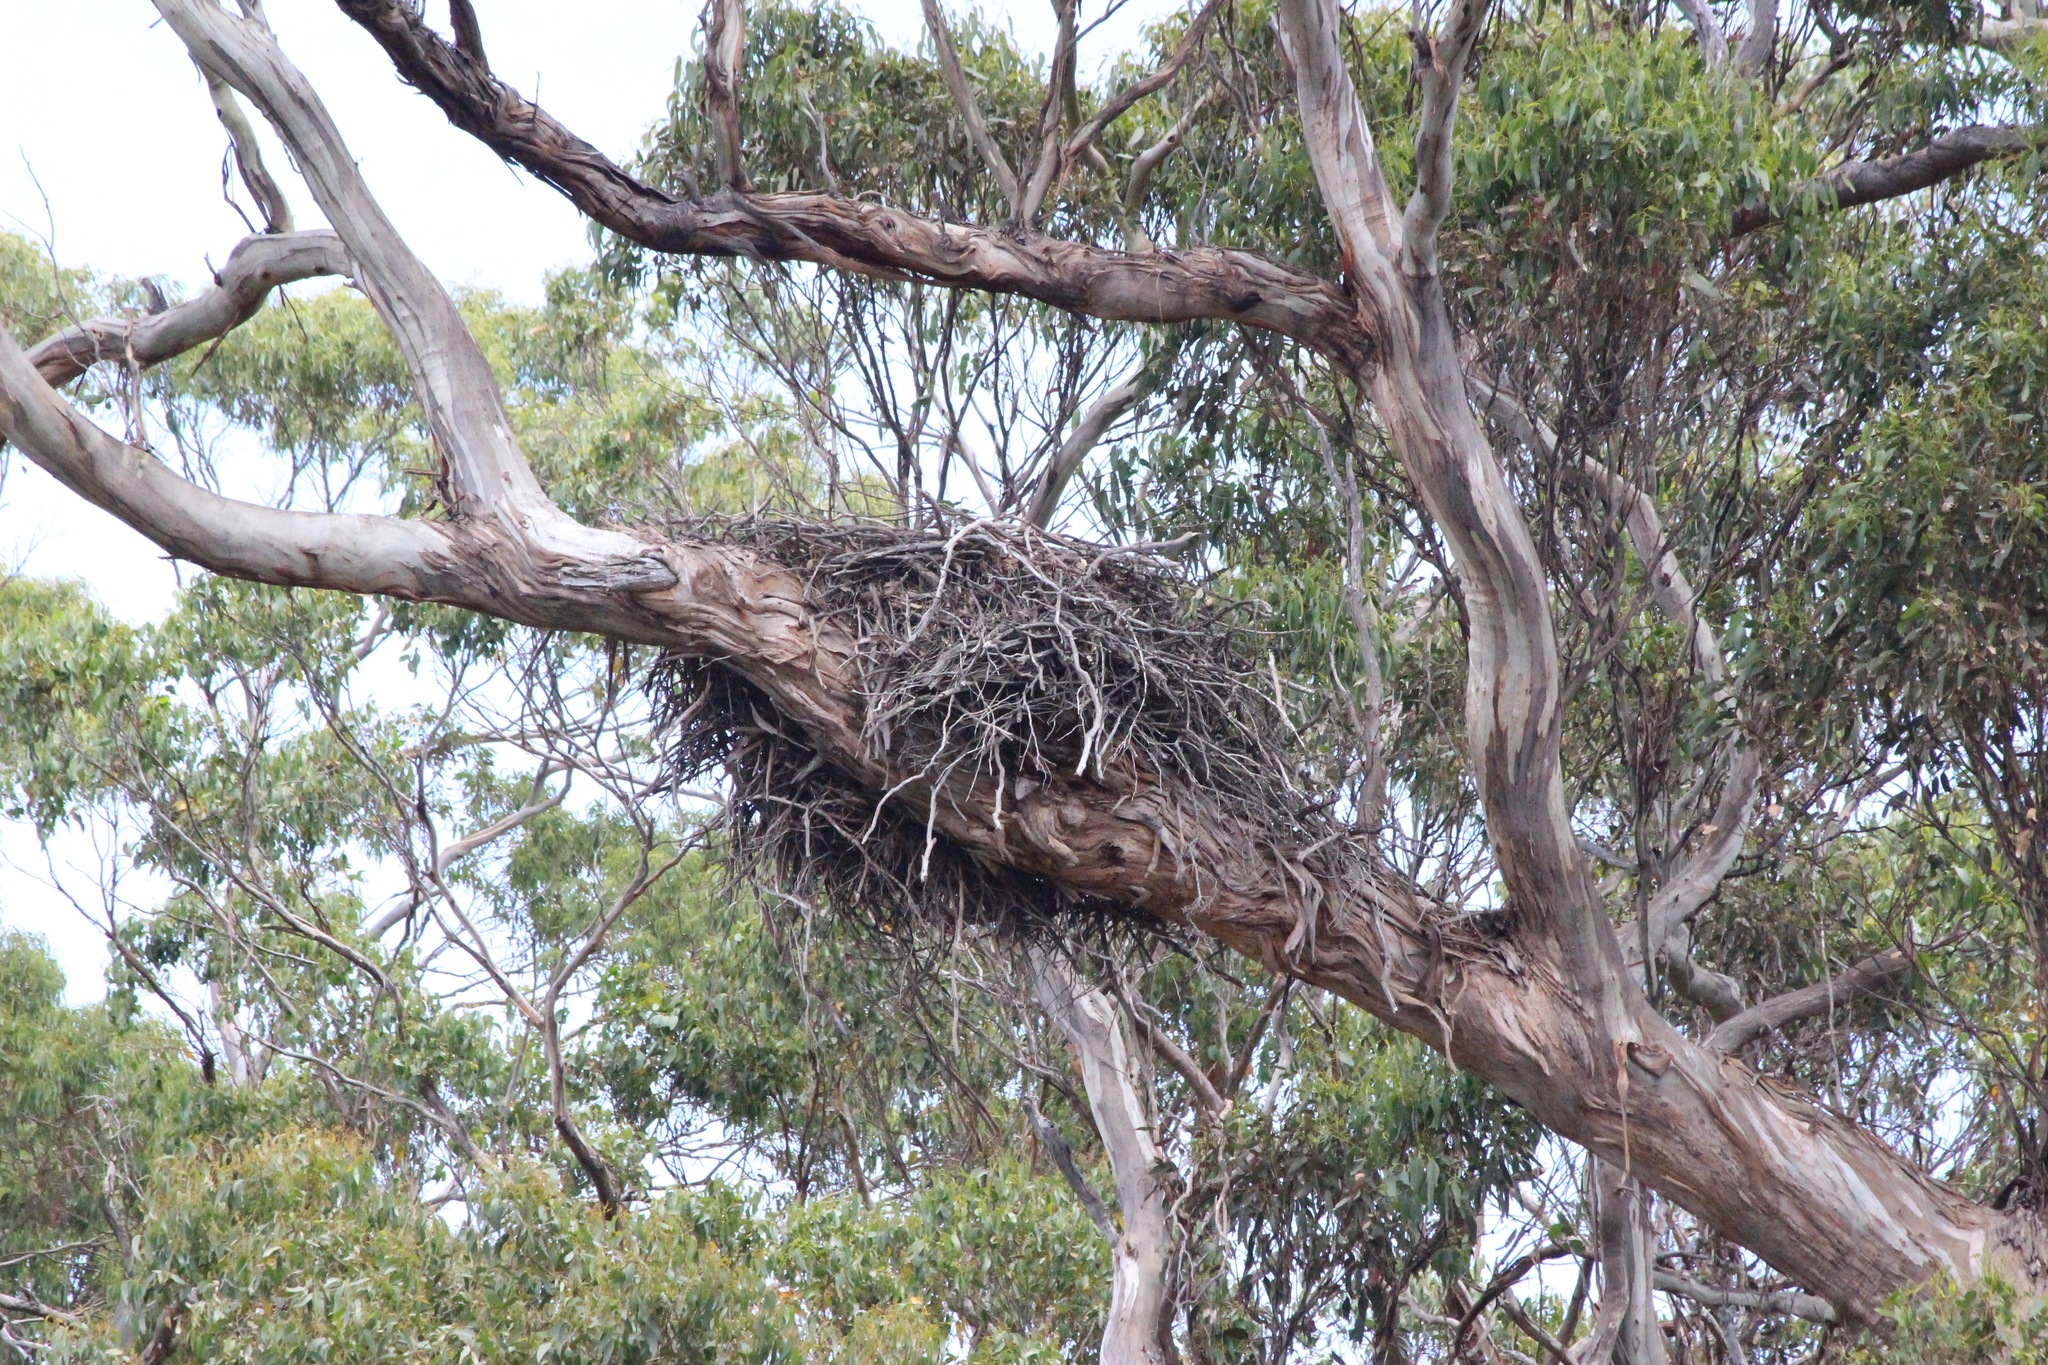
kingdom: Animalia
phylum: Chordata
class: Aves
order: Accipitriformes
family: Accipitridae
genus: Haliaeetus
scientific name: Haliaeetus leucogaster
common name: White-bellied sea eagle
